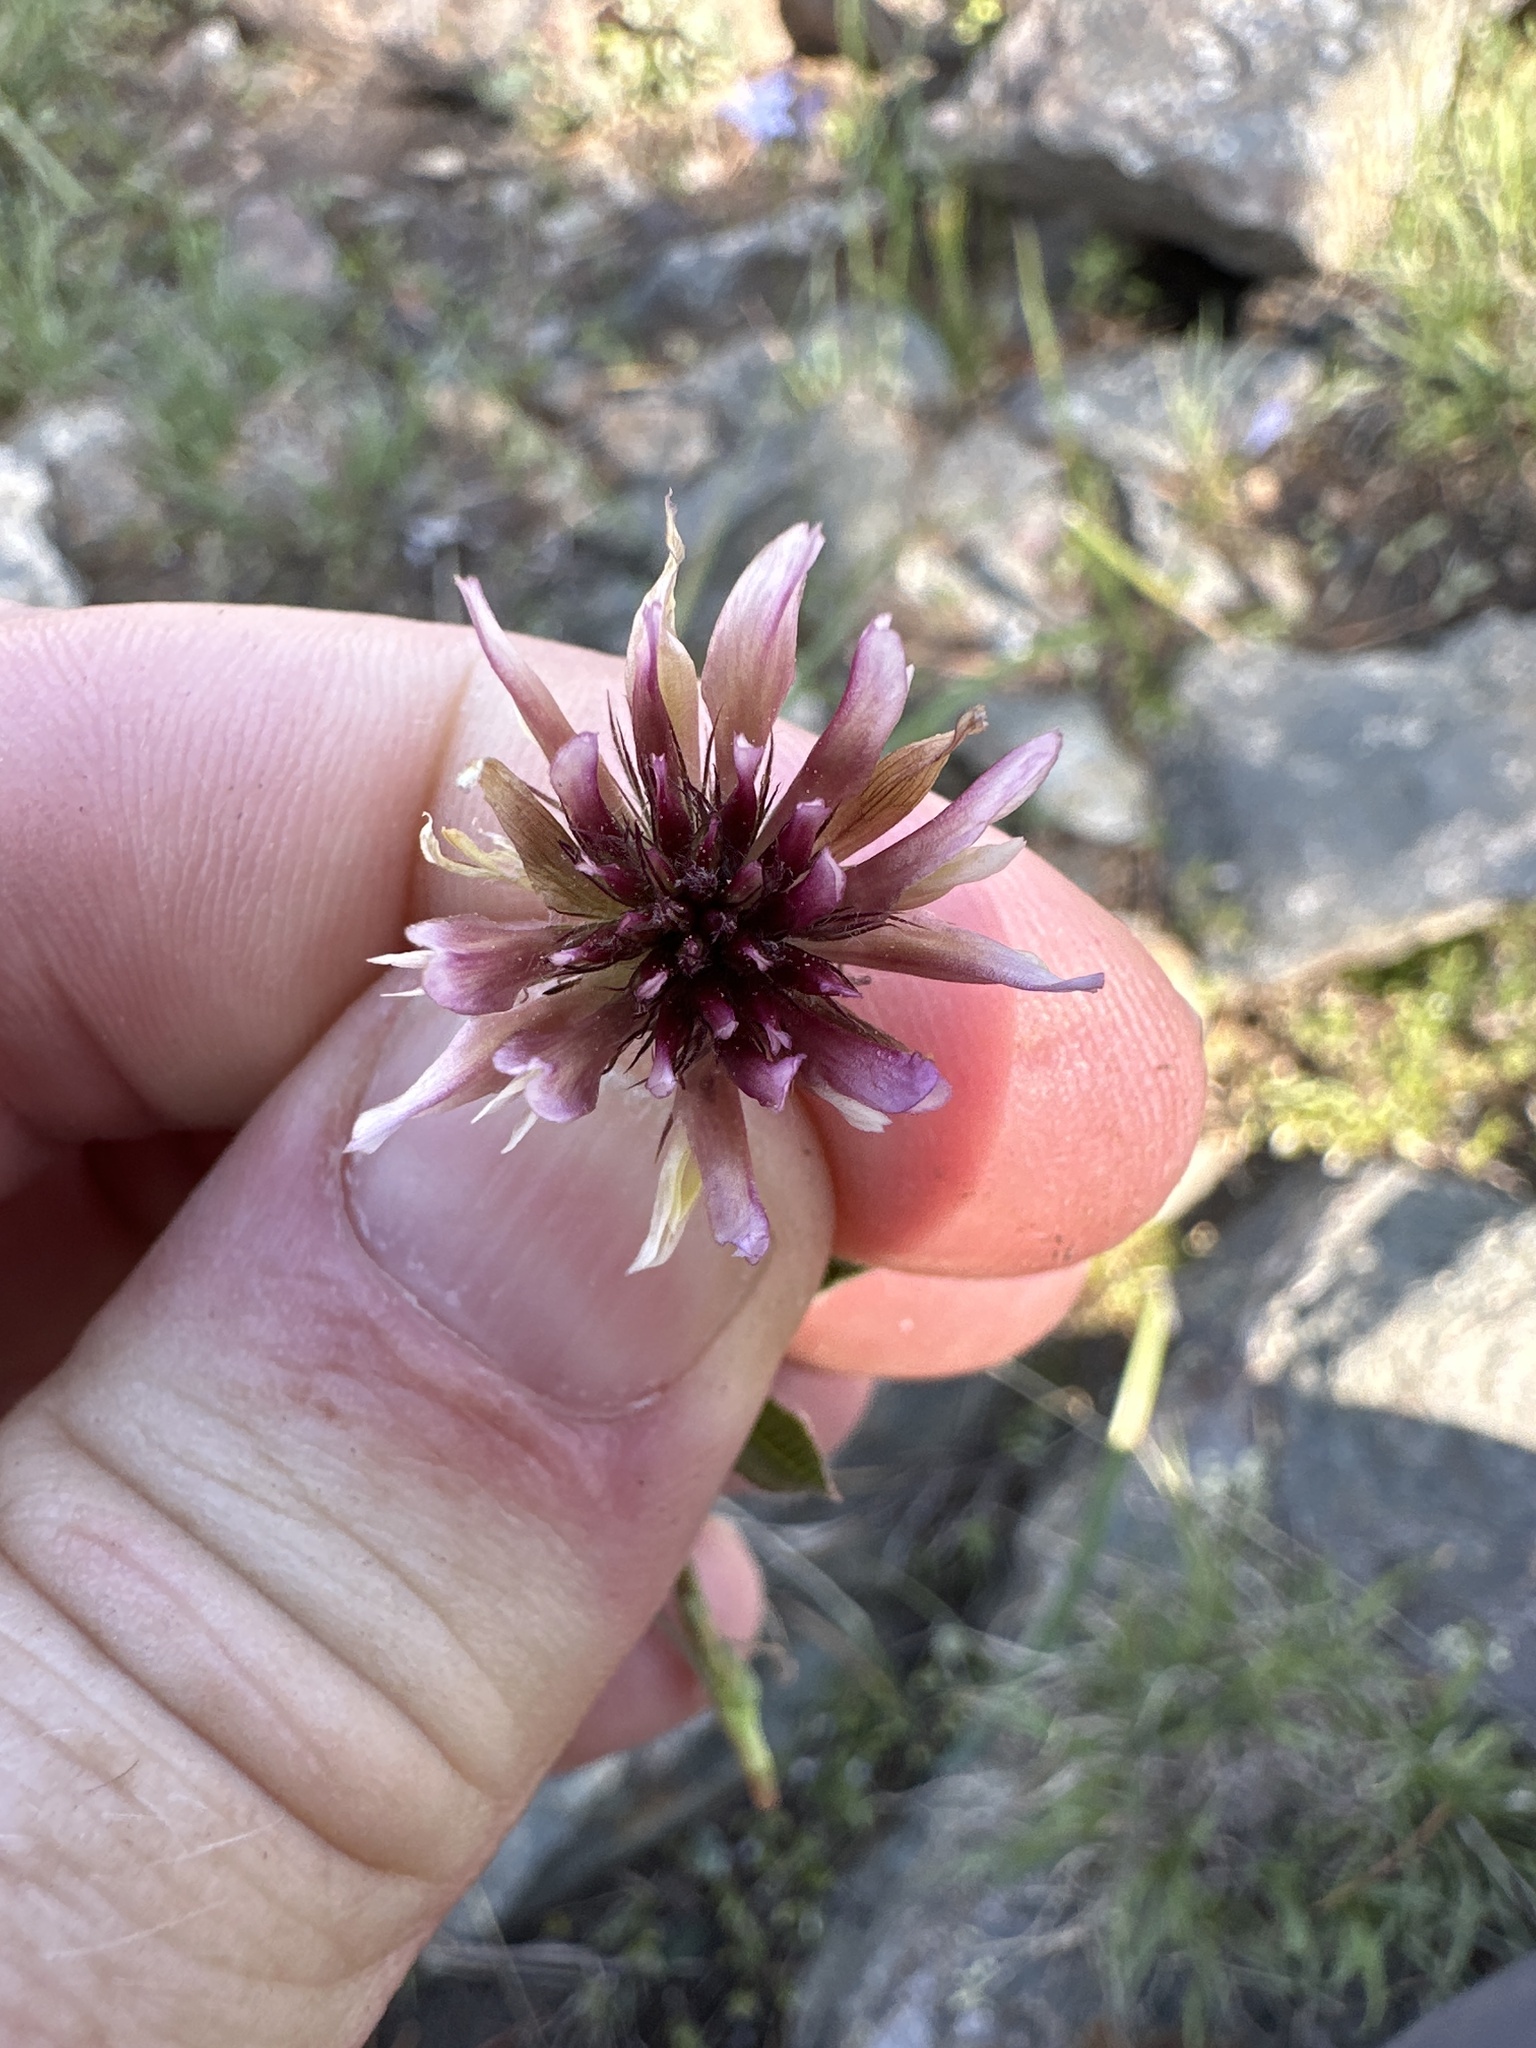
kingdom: Plantae
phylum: Tracheophyta
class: Magnoliopsida
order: Fabales
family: Fabaceae
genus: Trifolium
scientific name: Trifolium longipes
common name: Long-stalk clover
